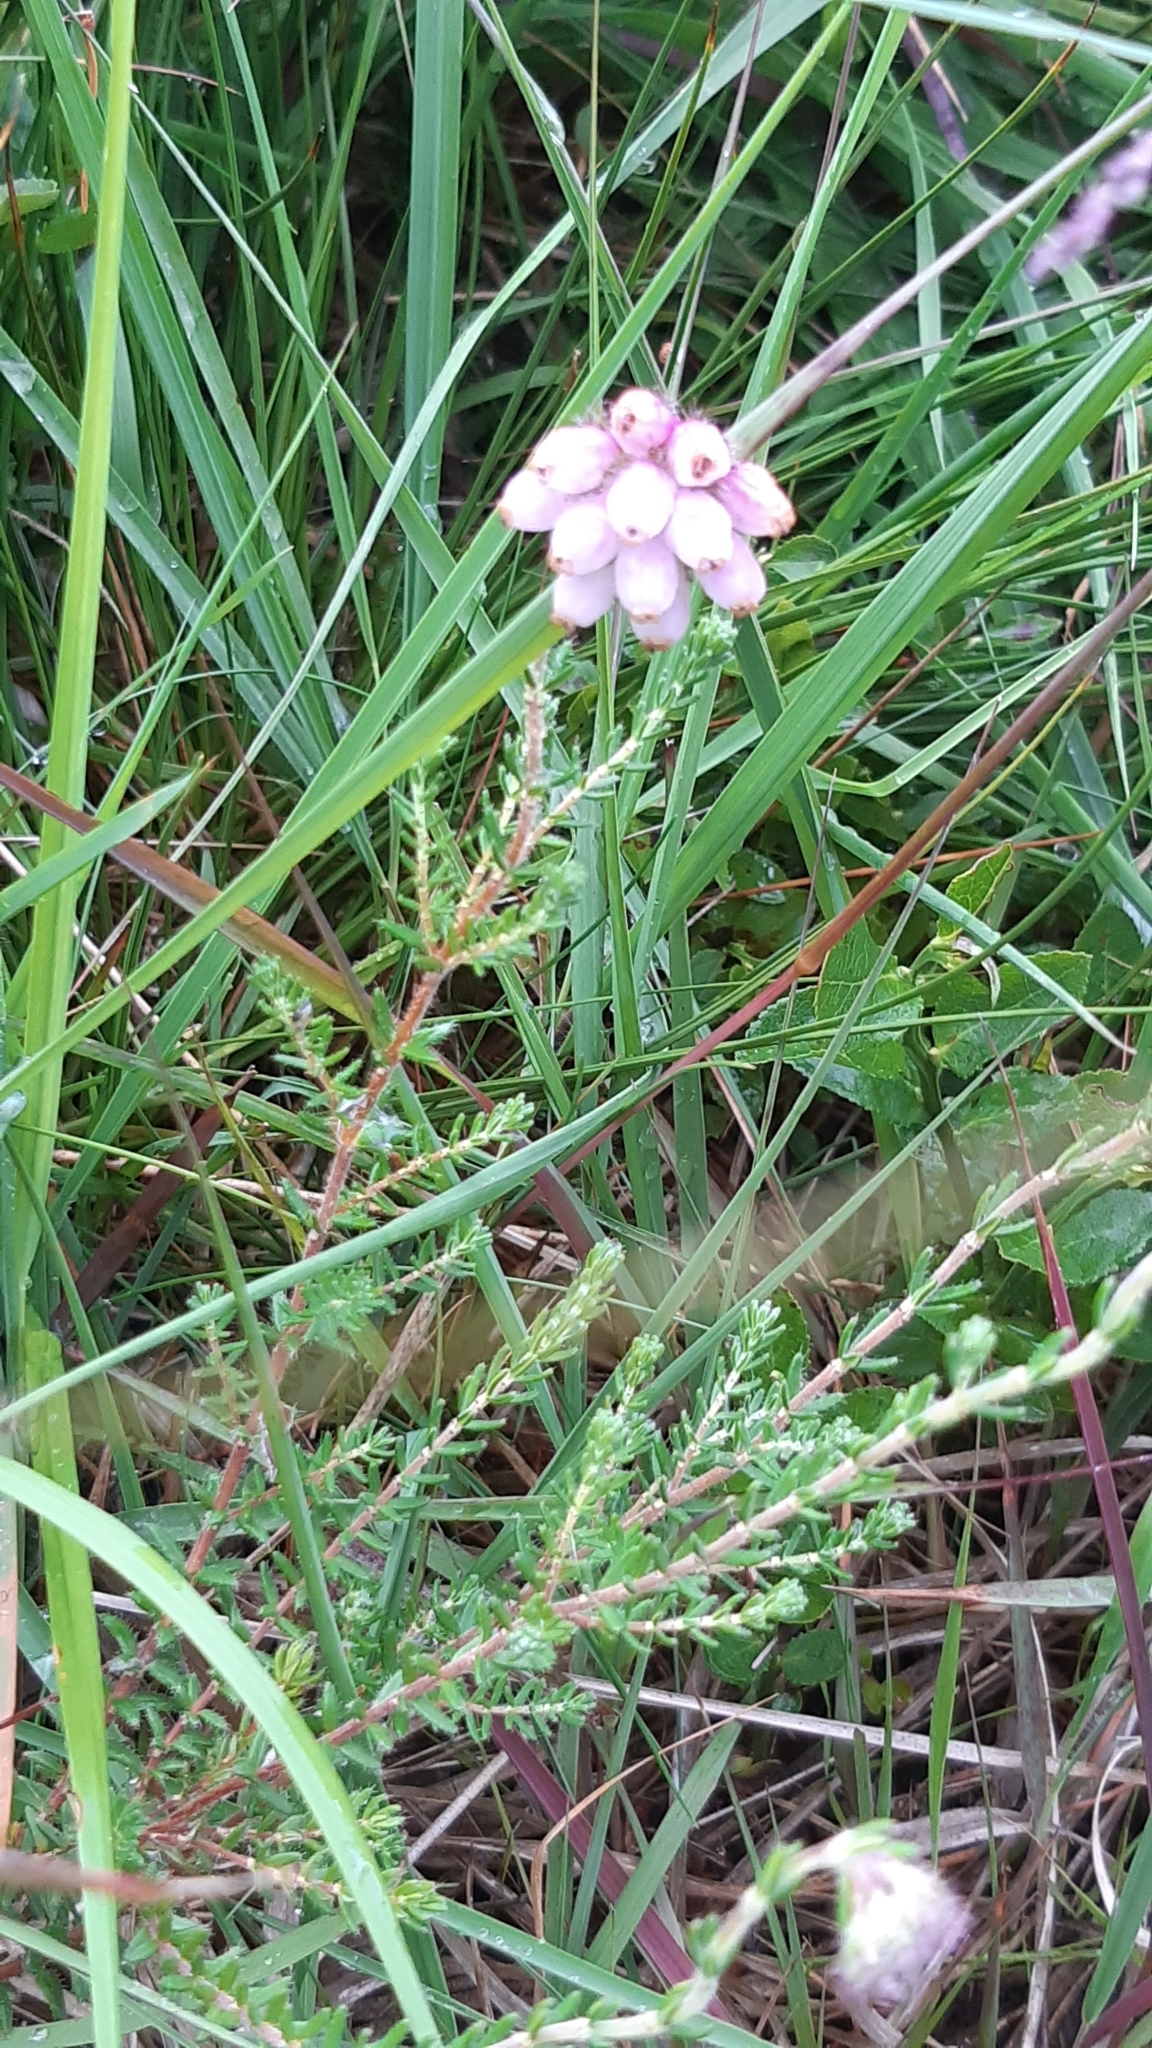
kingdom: Plantae
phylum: Tracheophyta
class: Magnoliopsida
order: Ericales
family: Ericaceae
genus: Erica
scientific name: Erica tetralix
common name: Cross-leaved heath
